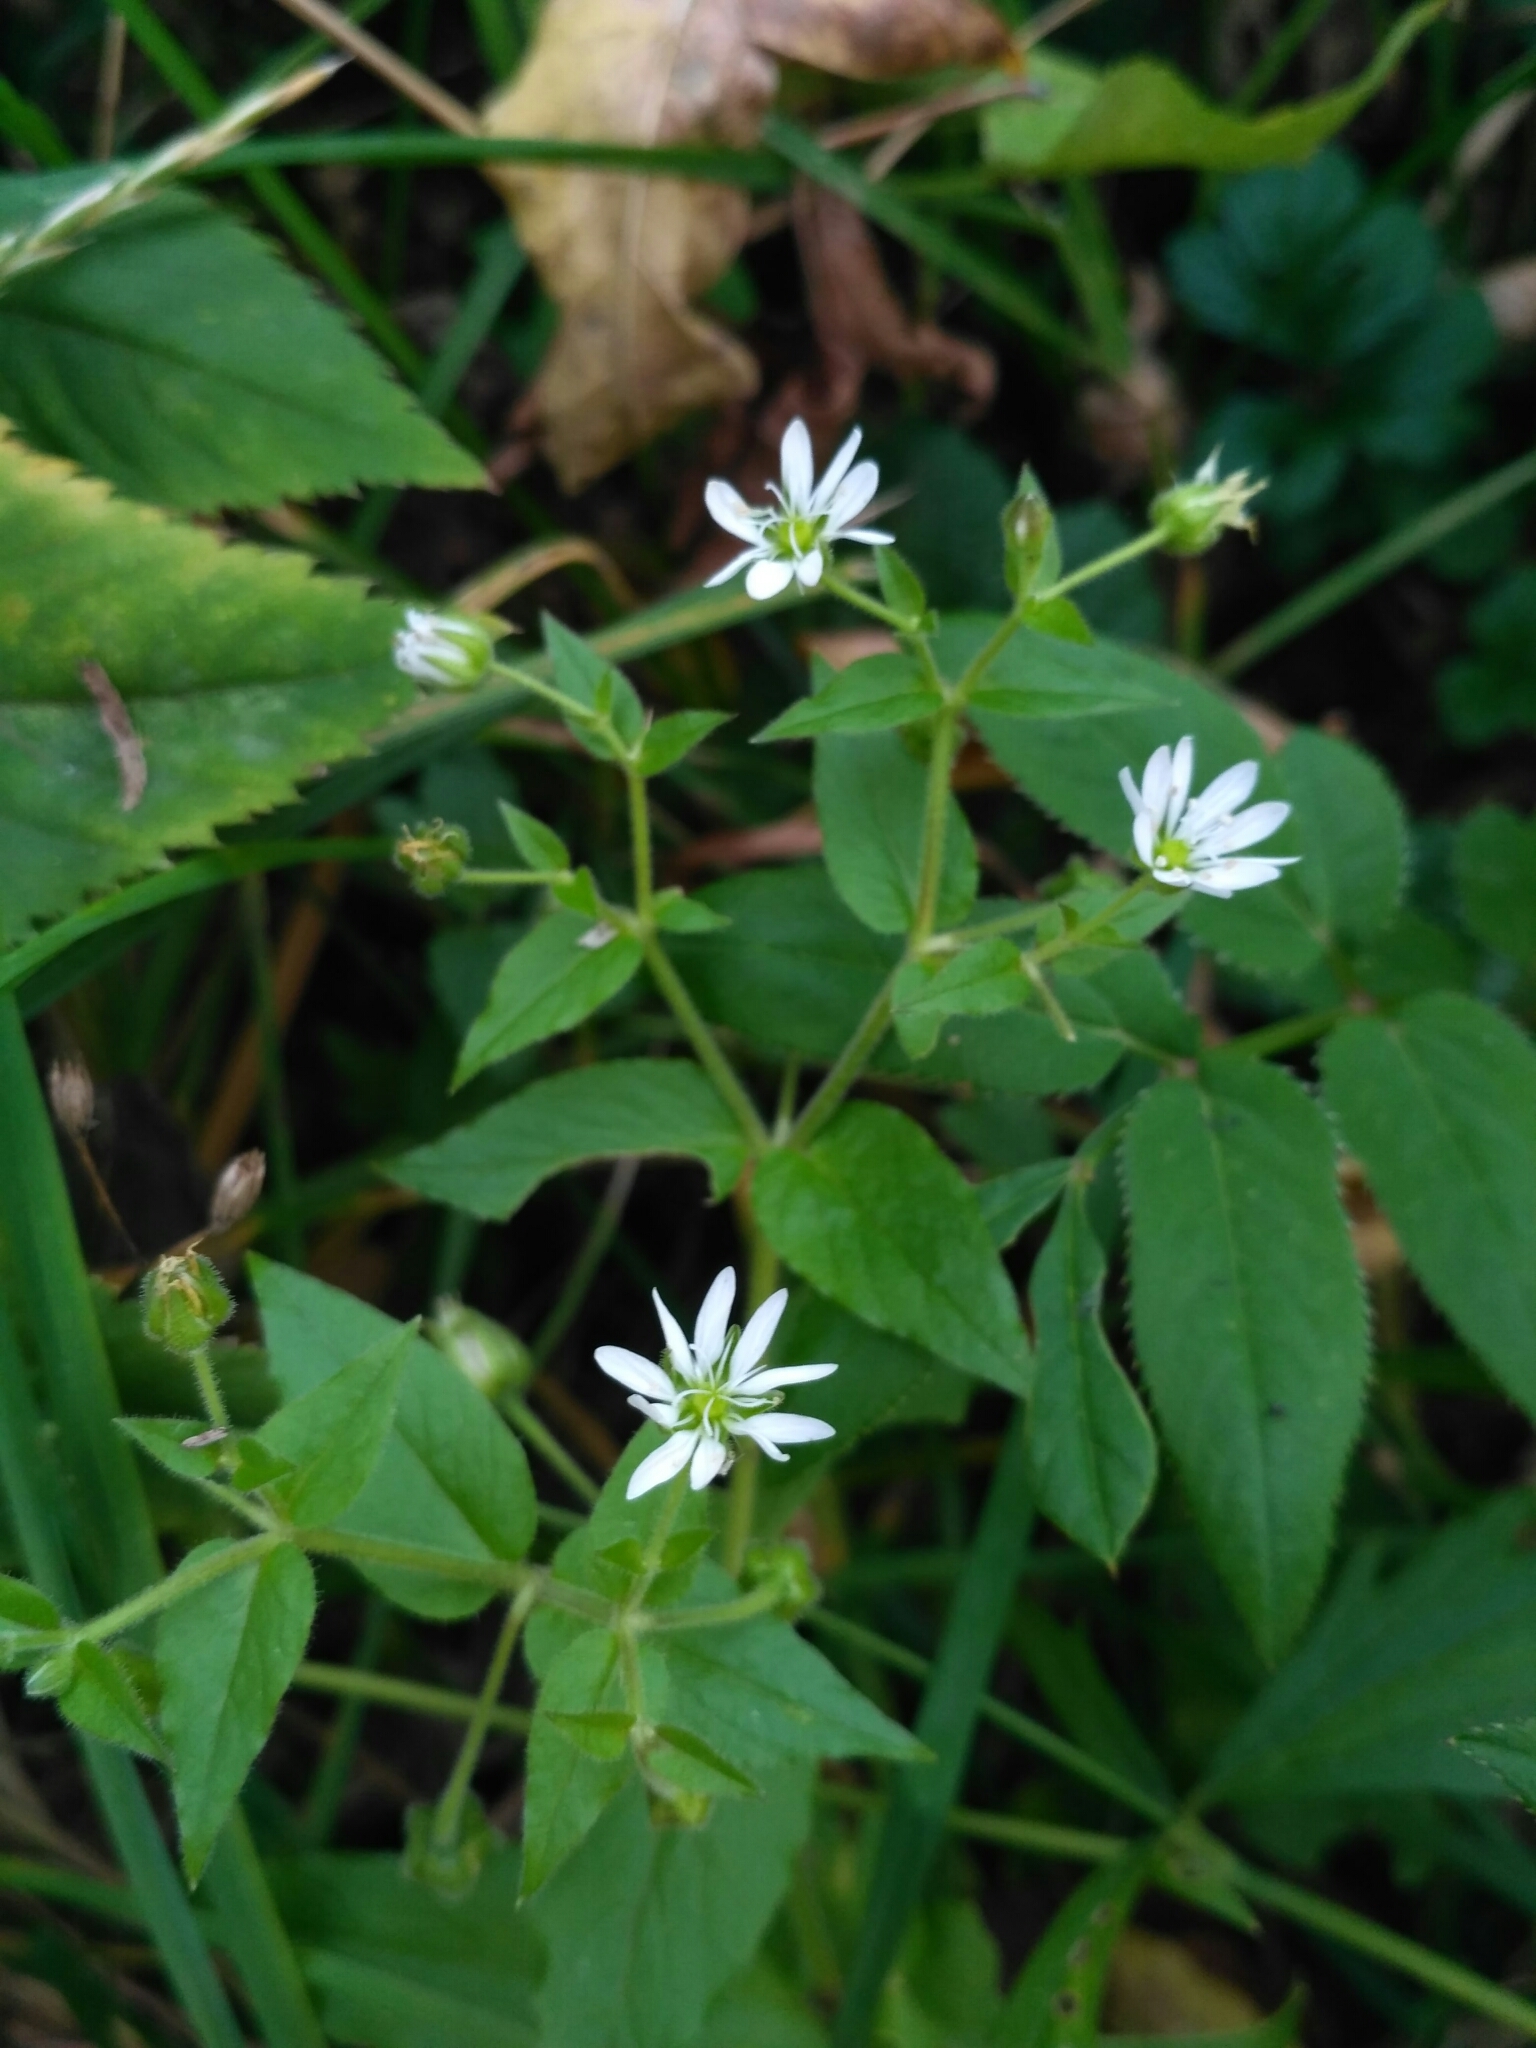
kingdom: Plantae
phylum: Tracheophyta
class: Magnoliopsida
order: Caryophyllales
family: Caryophyllaceae
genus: Stellaria
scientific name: Stellaria aquatica
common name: Water chickweed
